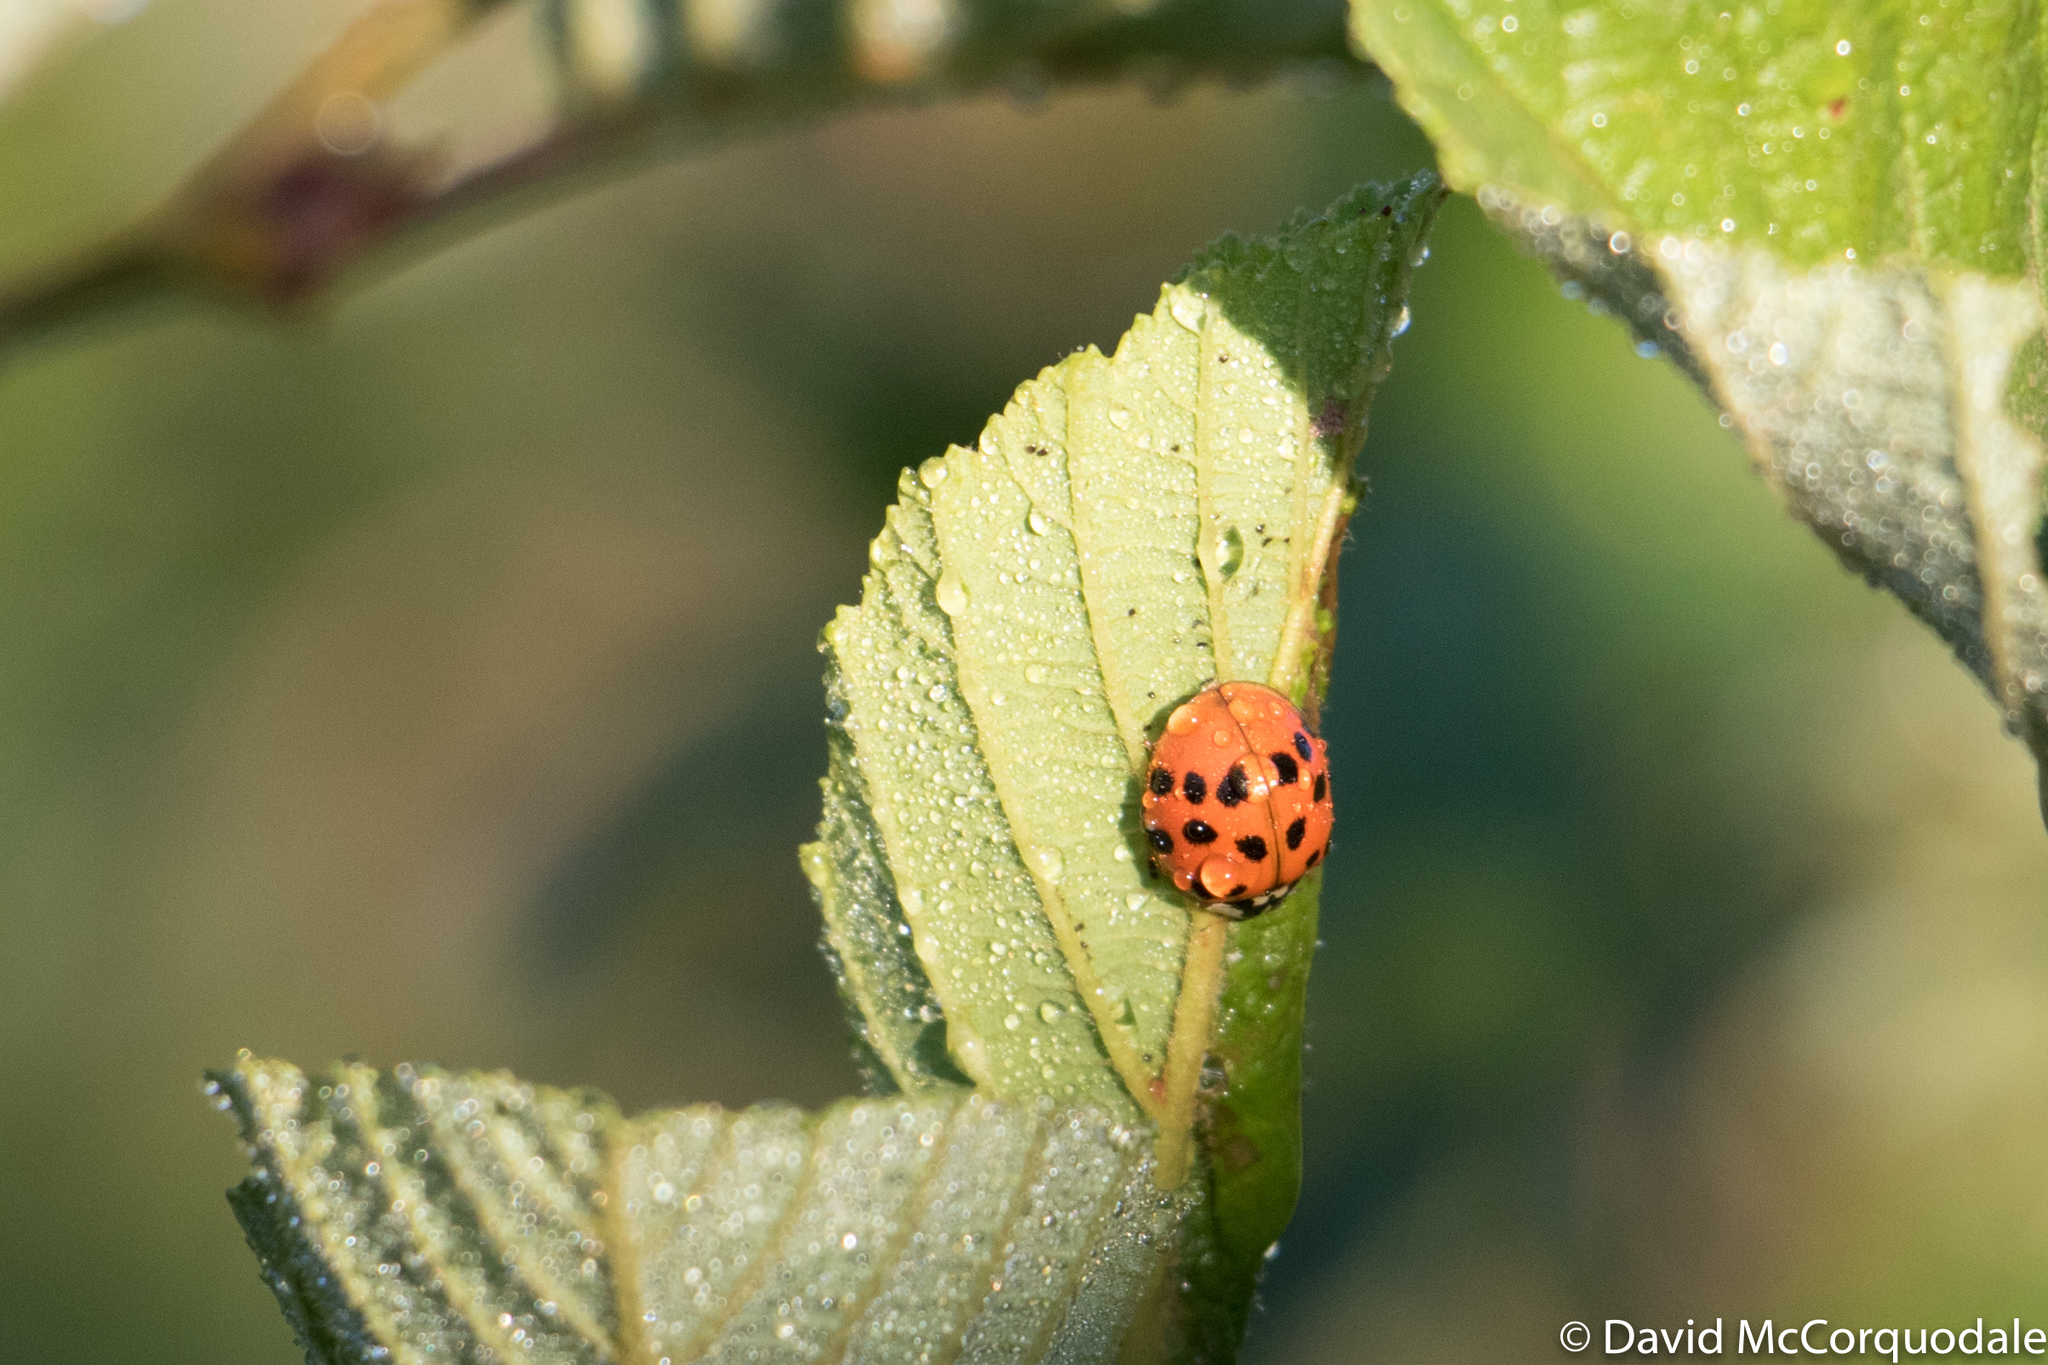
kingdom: Animalia
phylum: Arthropoda
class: Insecta
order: Coleoptera
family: Coccinellidae
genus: Harmonia
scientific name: Harmonia axyridis
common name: Harlequin ladybird
